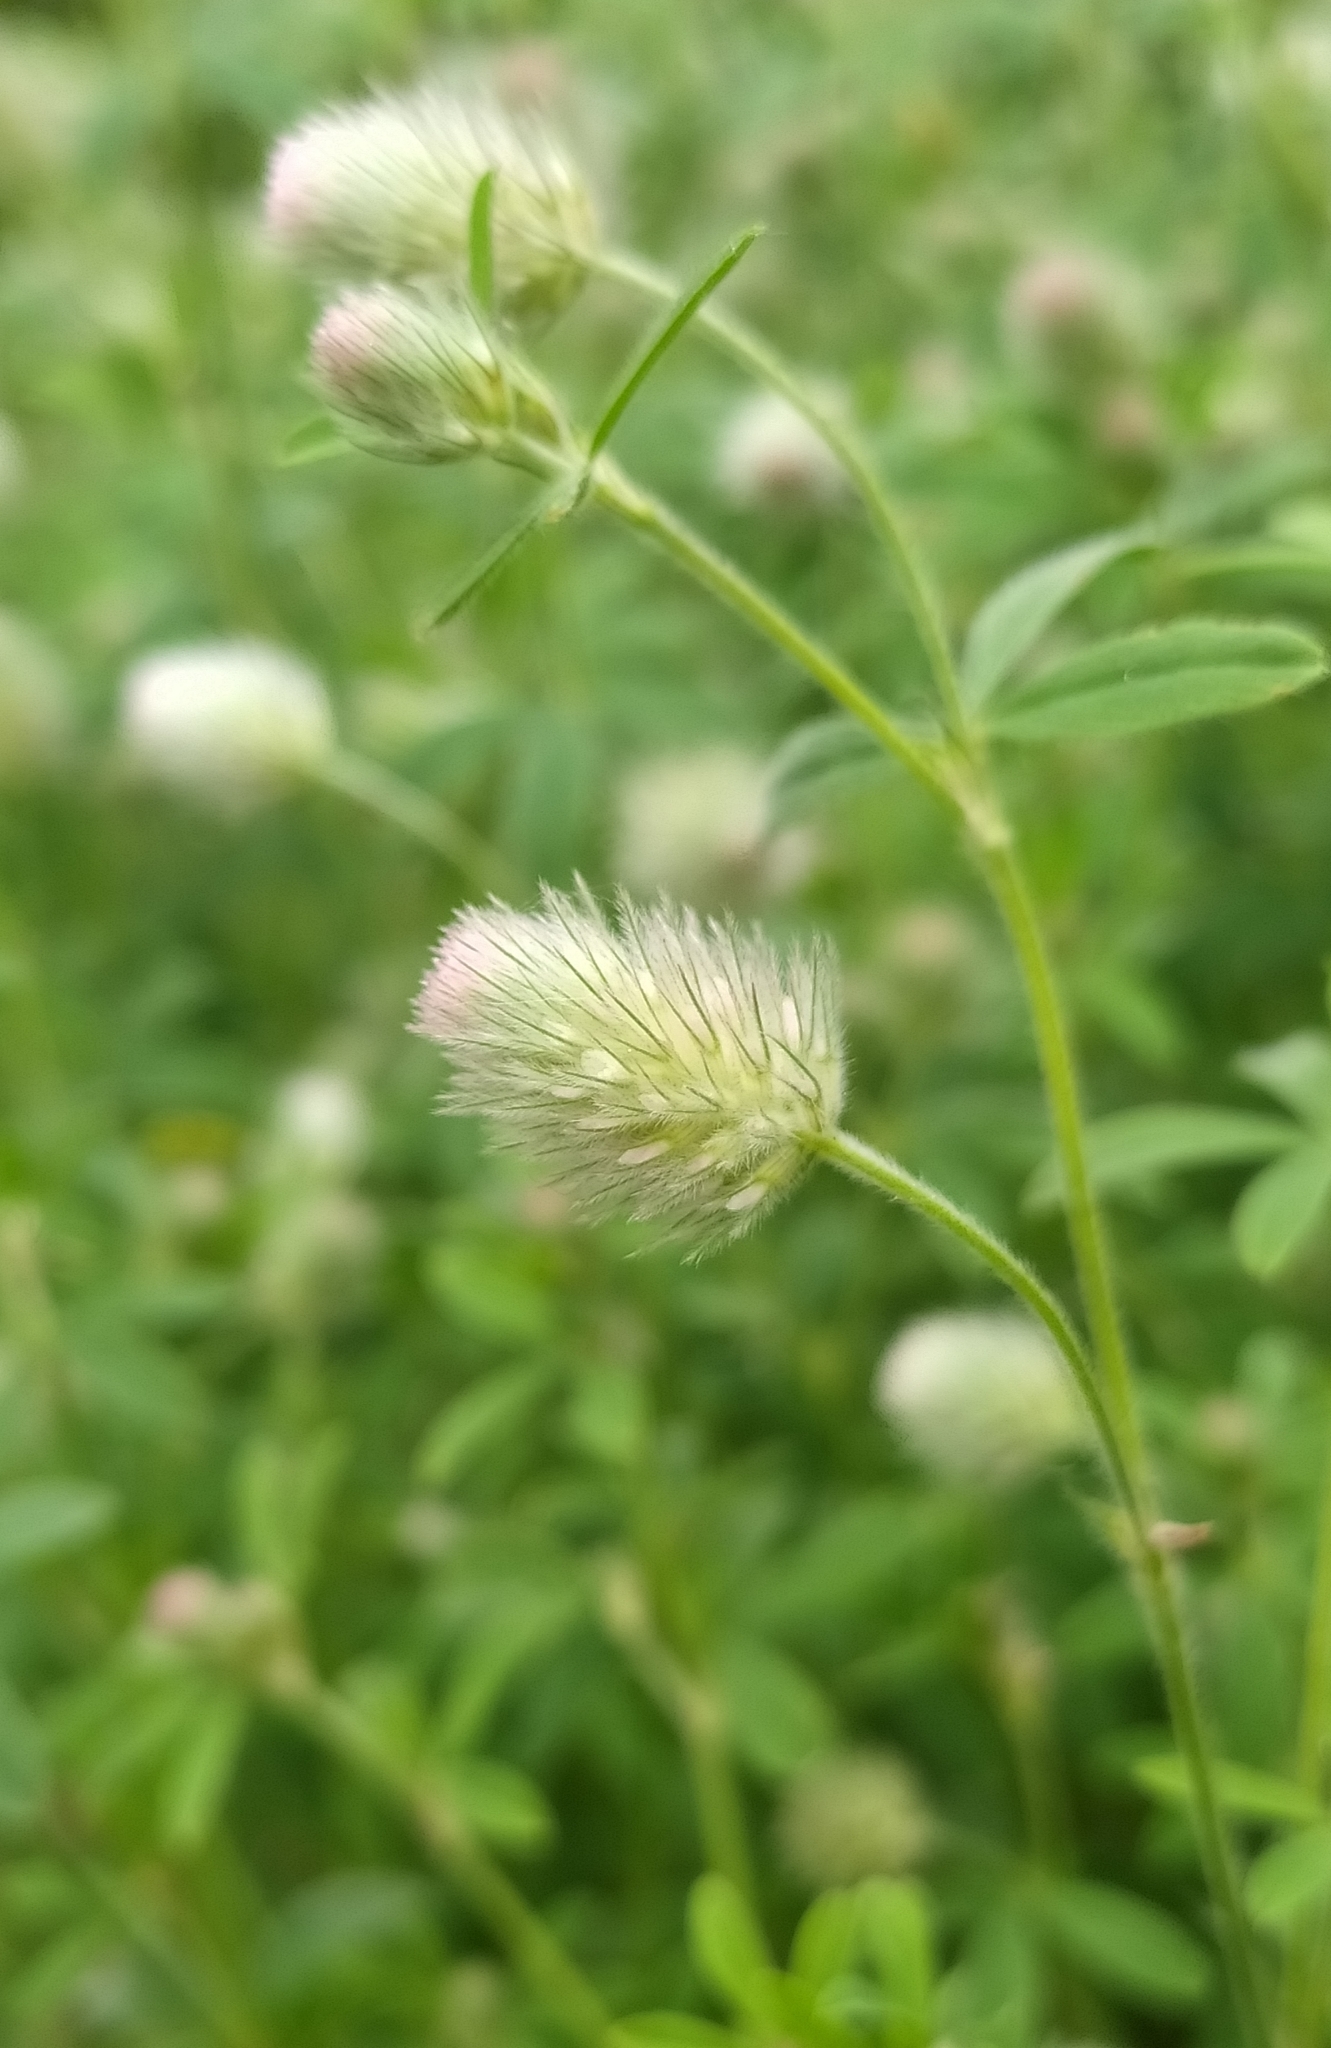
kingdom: Plantae
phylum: Tracheophyta
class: Magnoliopsida
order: Fabales
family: Fabaceae
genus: Trifolium
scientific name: Trifolium arvense
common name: Hare's-foot clover
